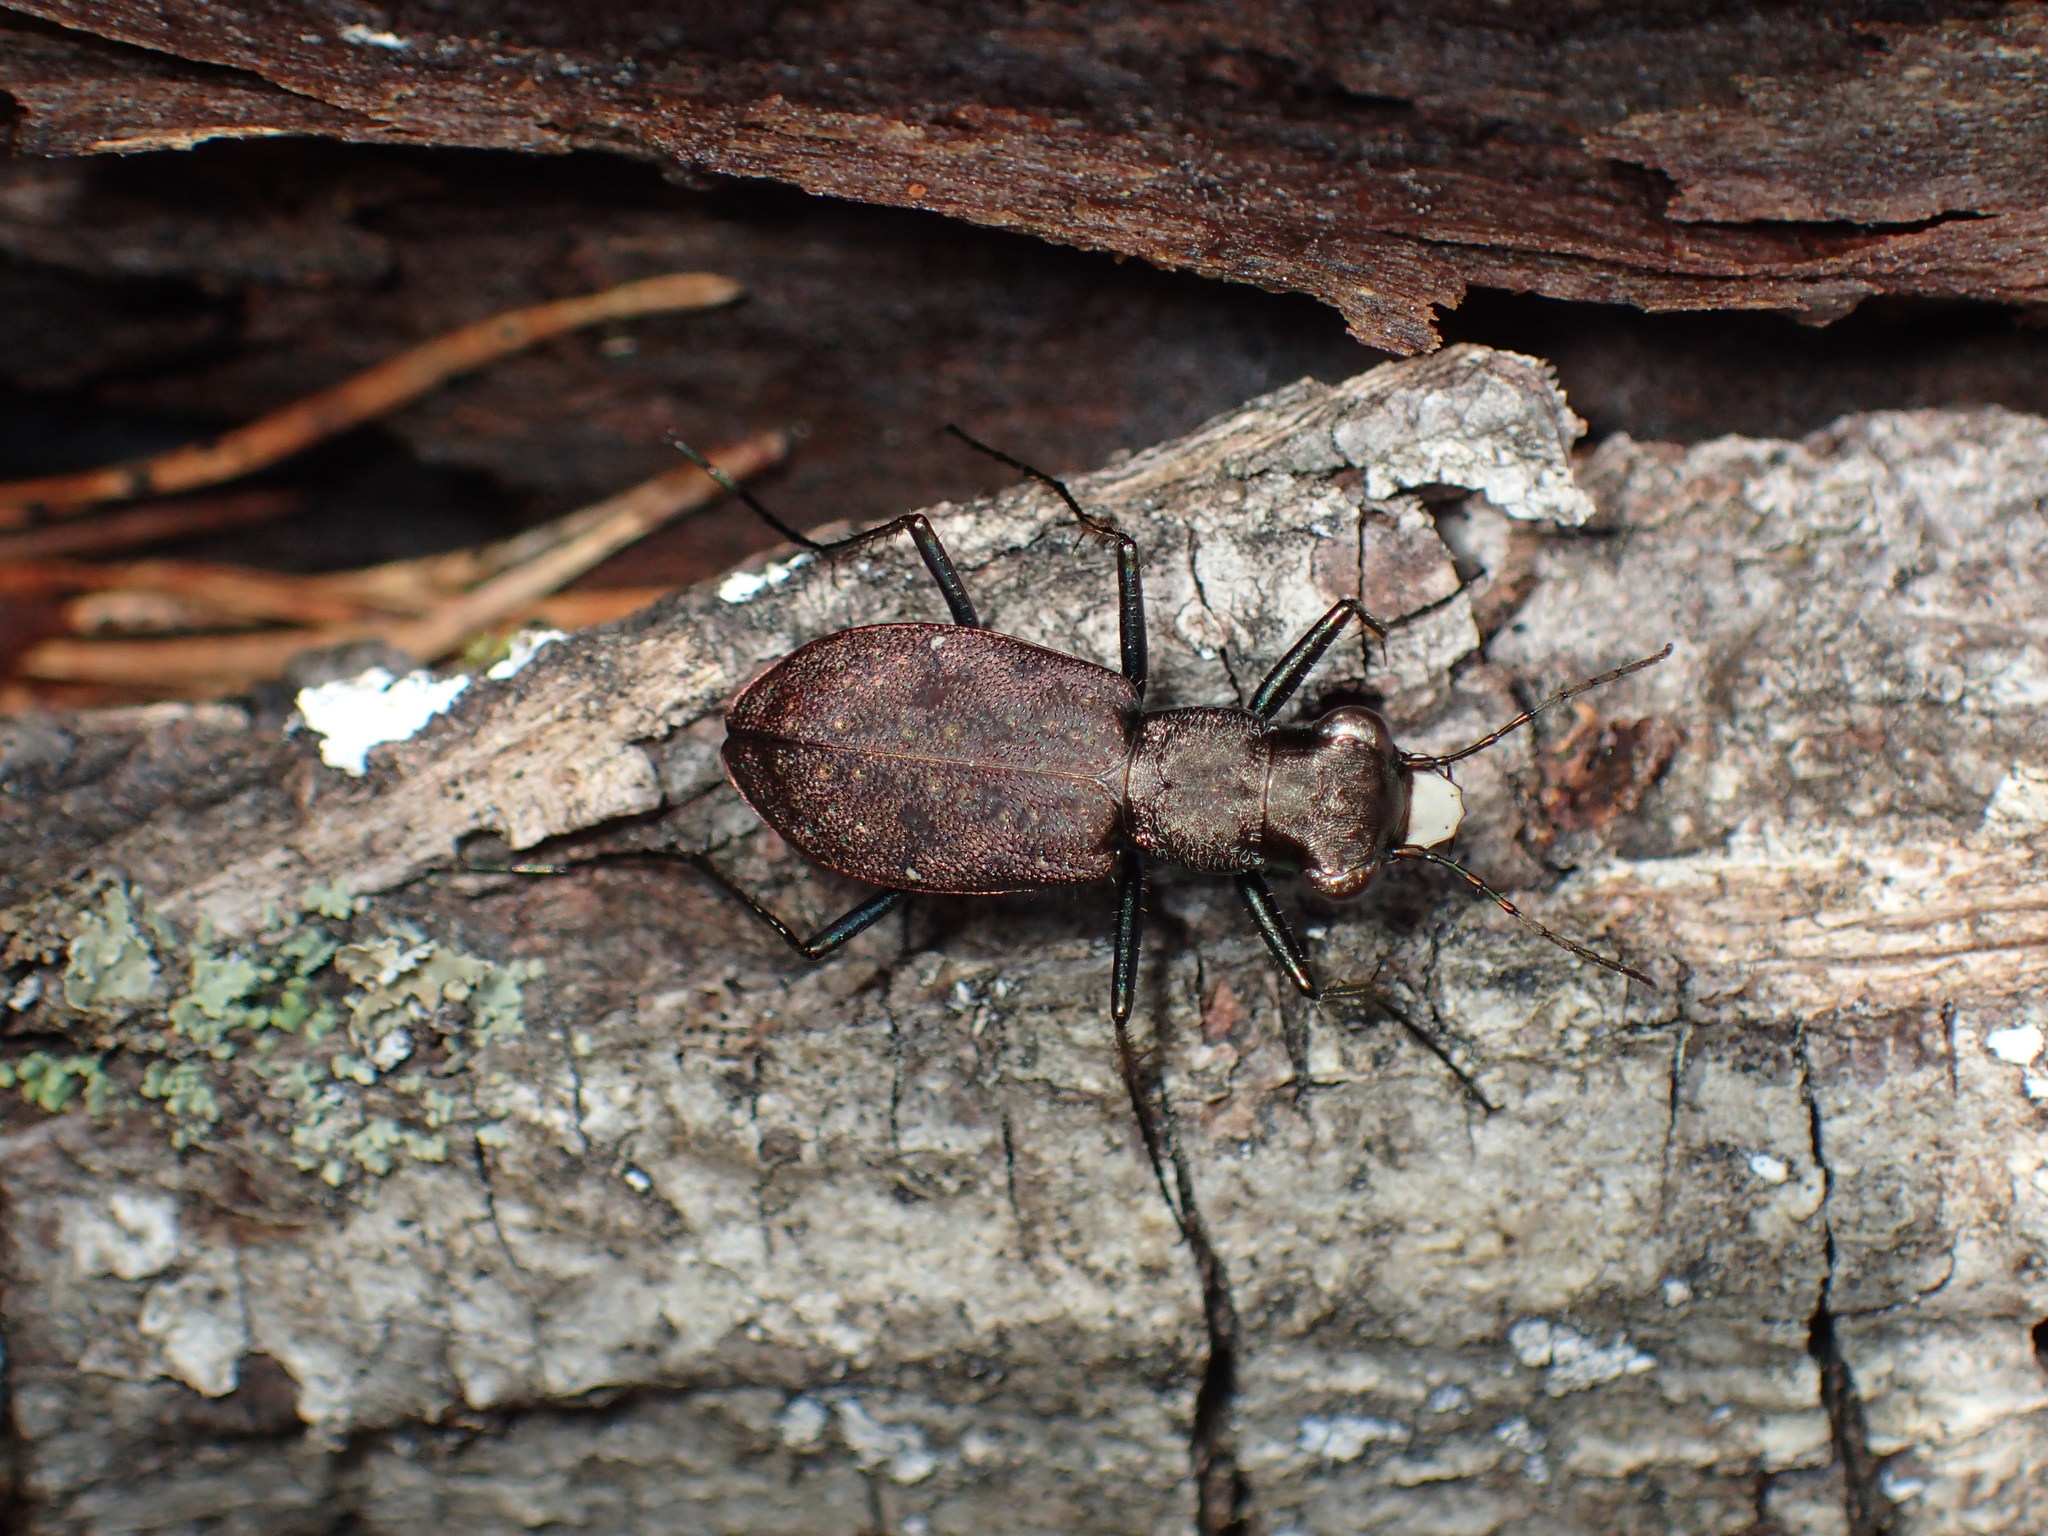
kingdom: Animalia
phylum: Arthropoda
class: Insecta
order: Coleoptera
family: Carabidae
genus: Cylindera
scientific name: Cylindera unipunctata
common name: One-spotted tiger beetle
